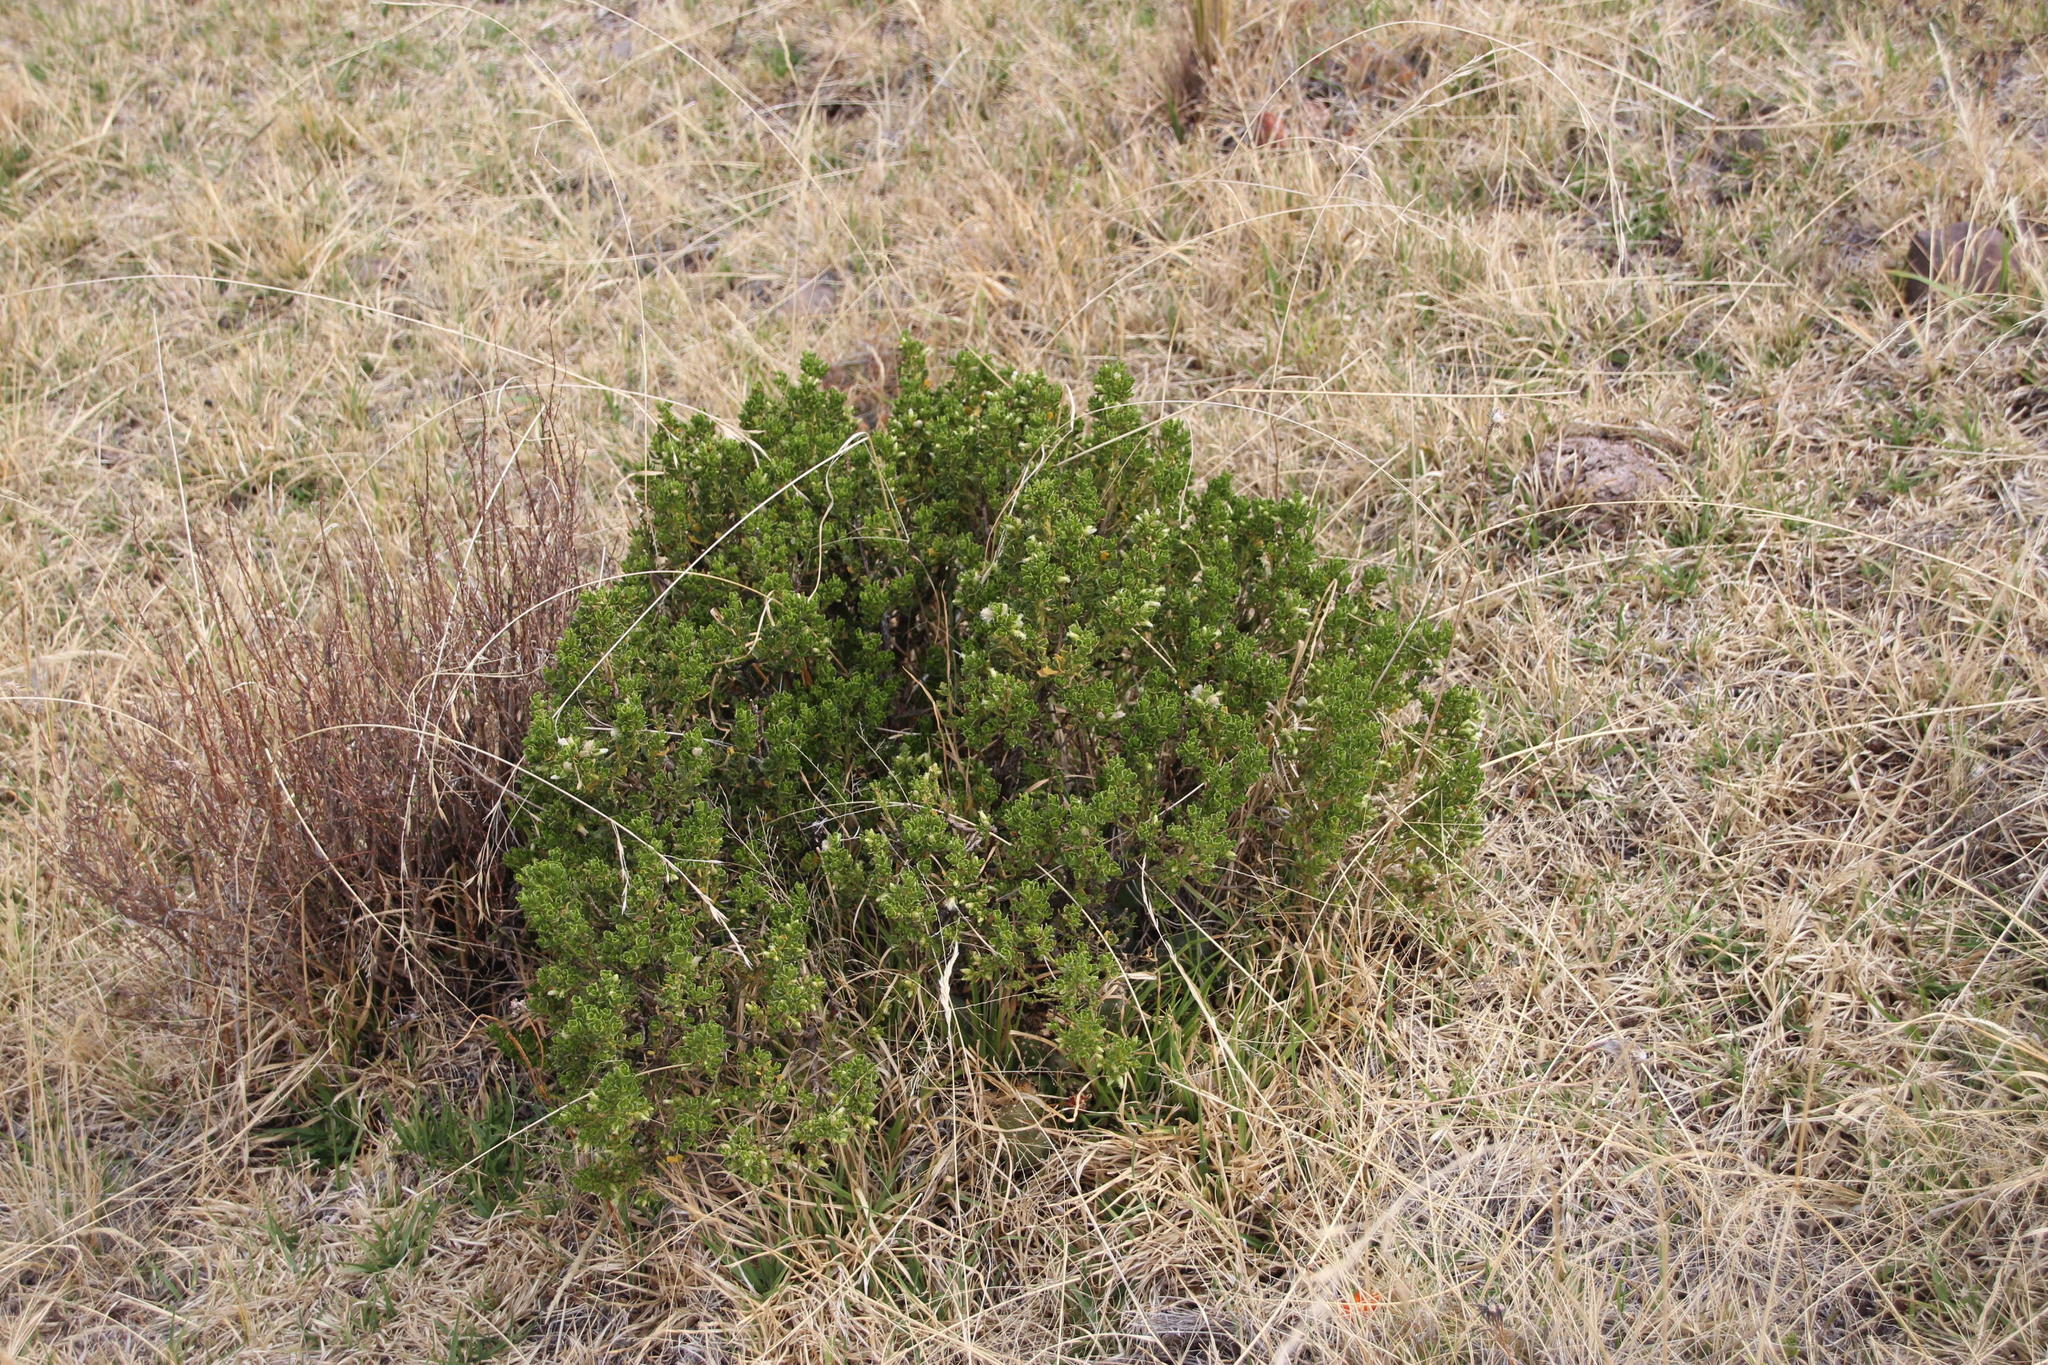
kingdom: Plantae
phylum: Tracheophyta
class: Magnoliopsida
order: Asterales
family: Asteraceae
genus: Baccharis
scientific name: Baccharis tricuneata
